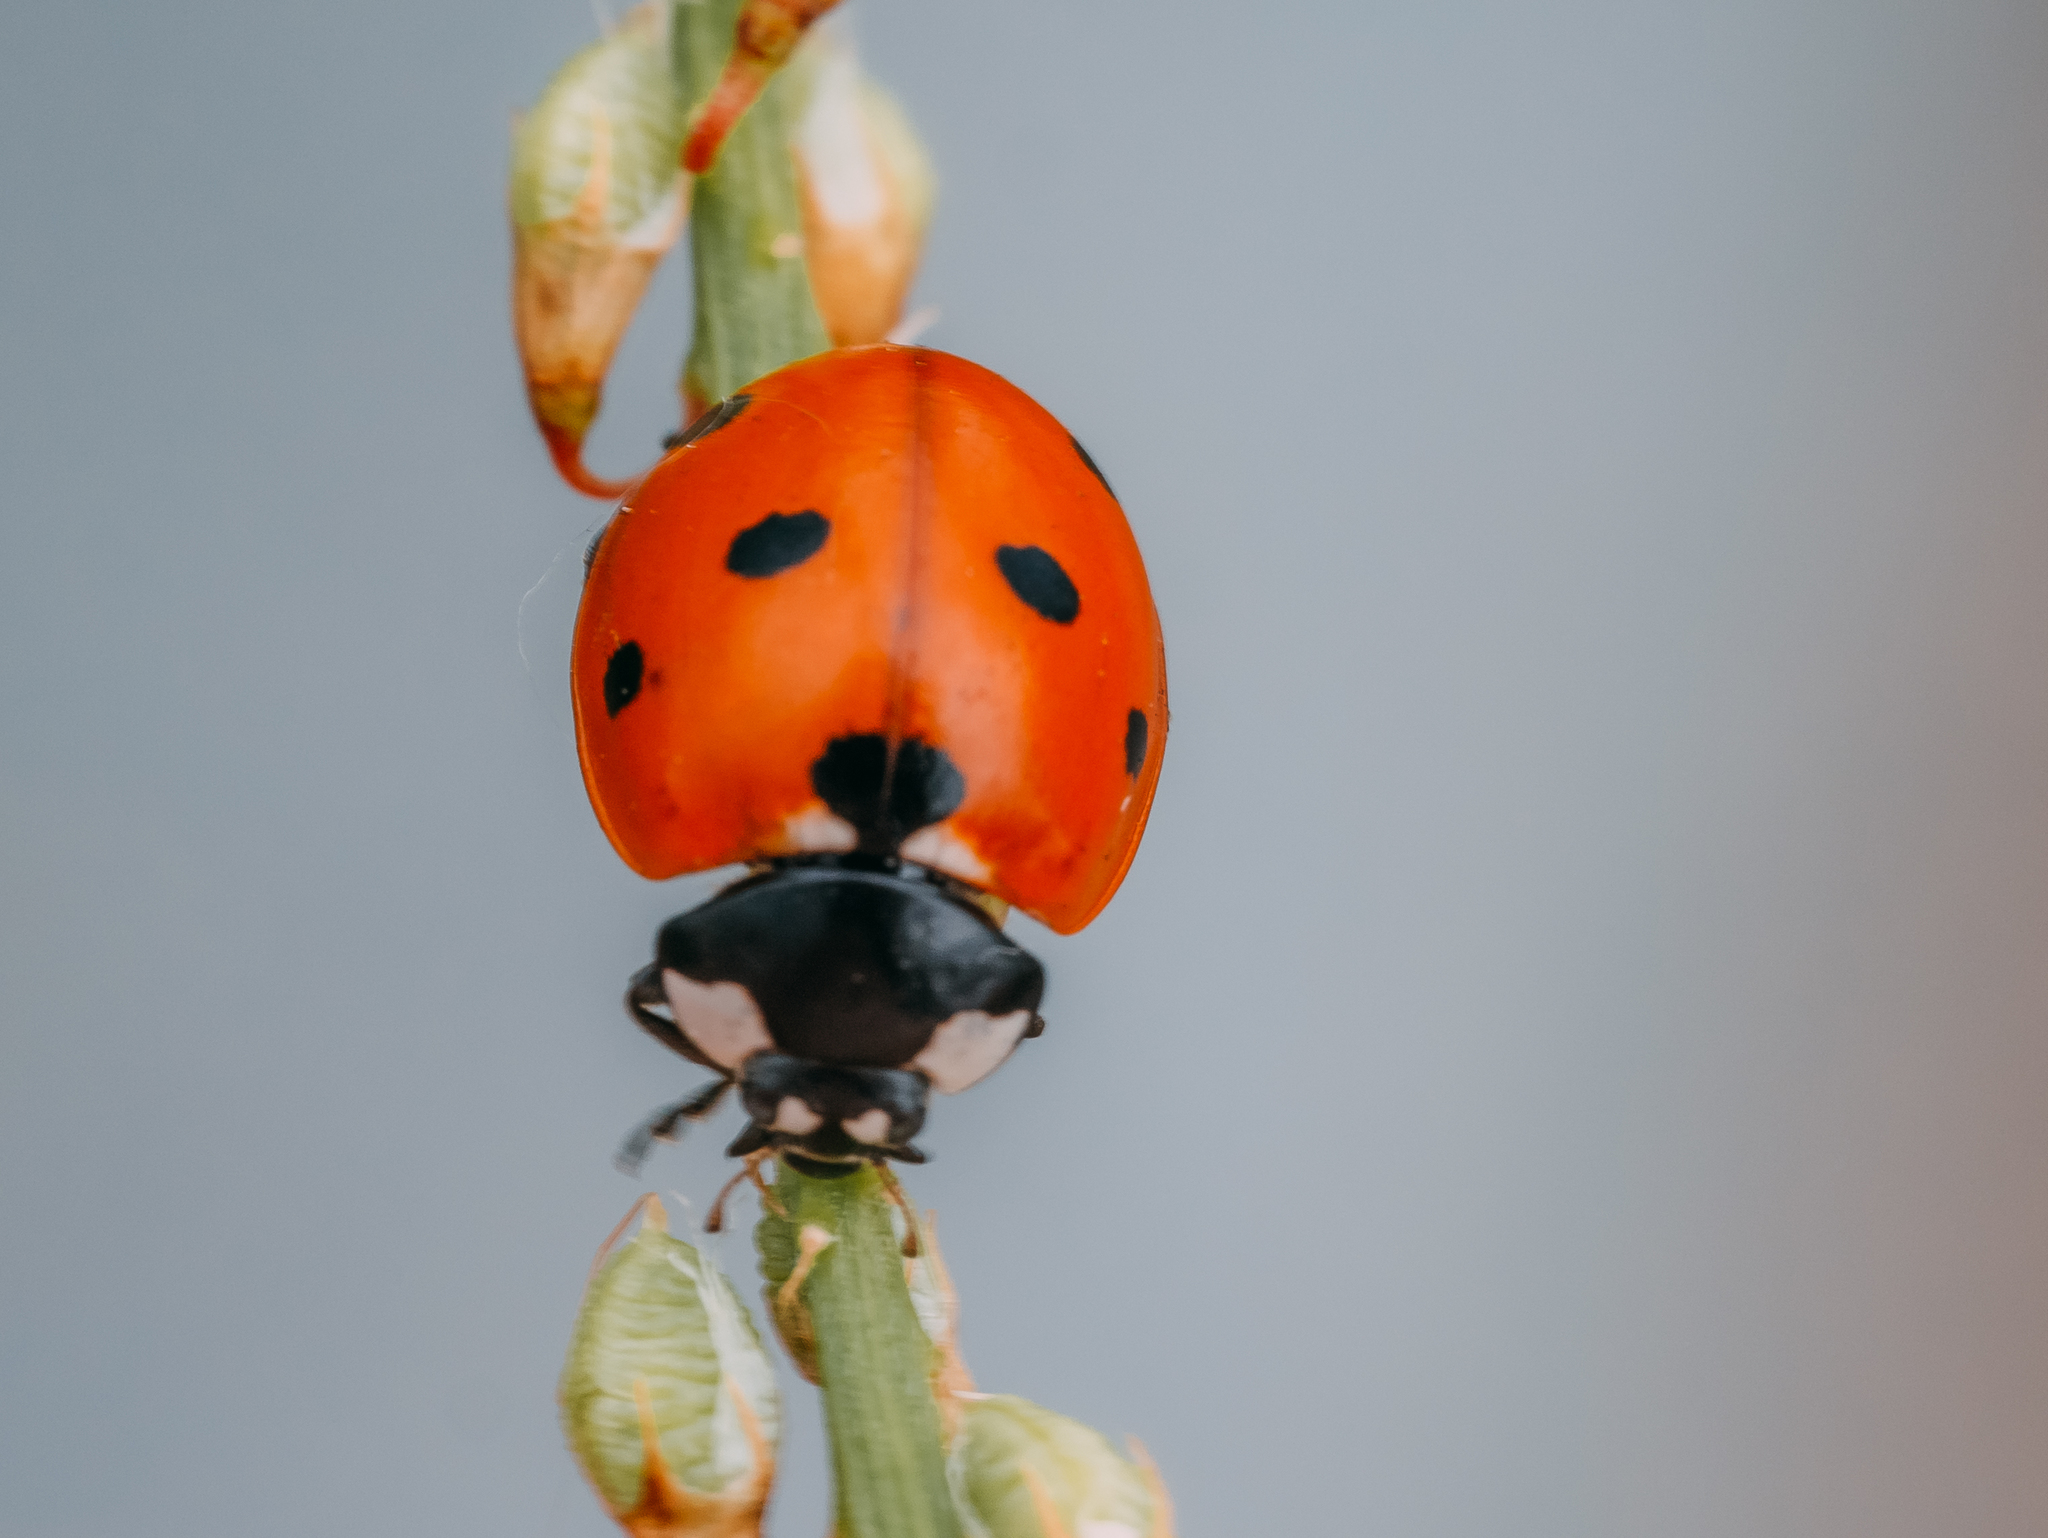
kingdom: Animalia
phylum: Arthropoda
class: Insecta
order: Coleoptera
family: Coccinellidae
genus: Coccinella
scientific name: Coccinella septempunctata
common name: Sevenspotted lady beetle
